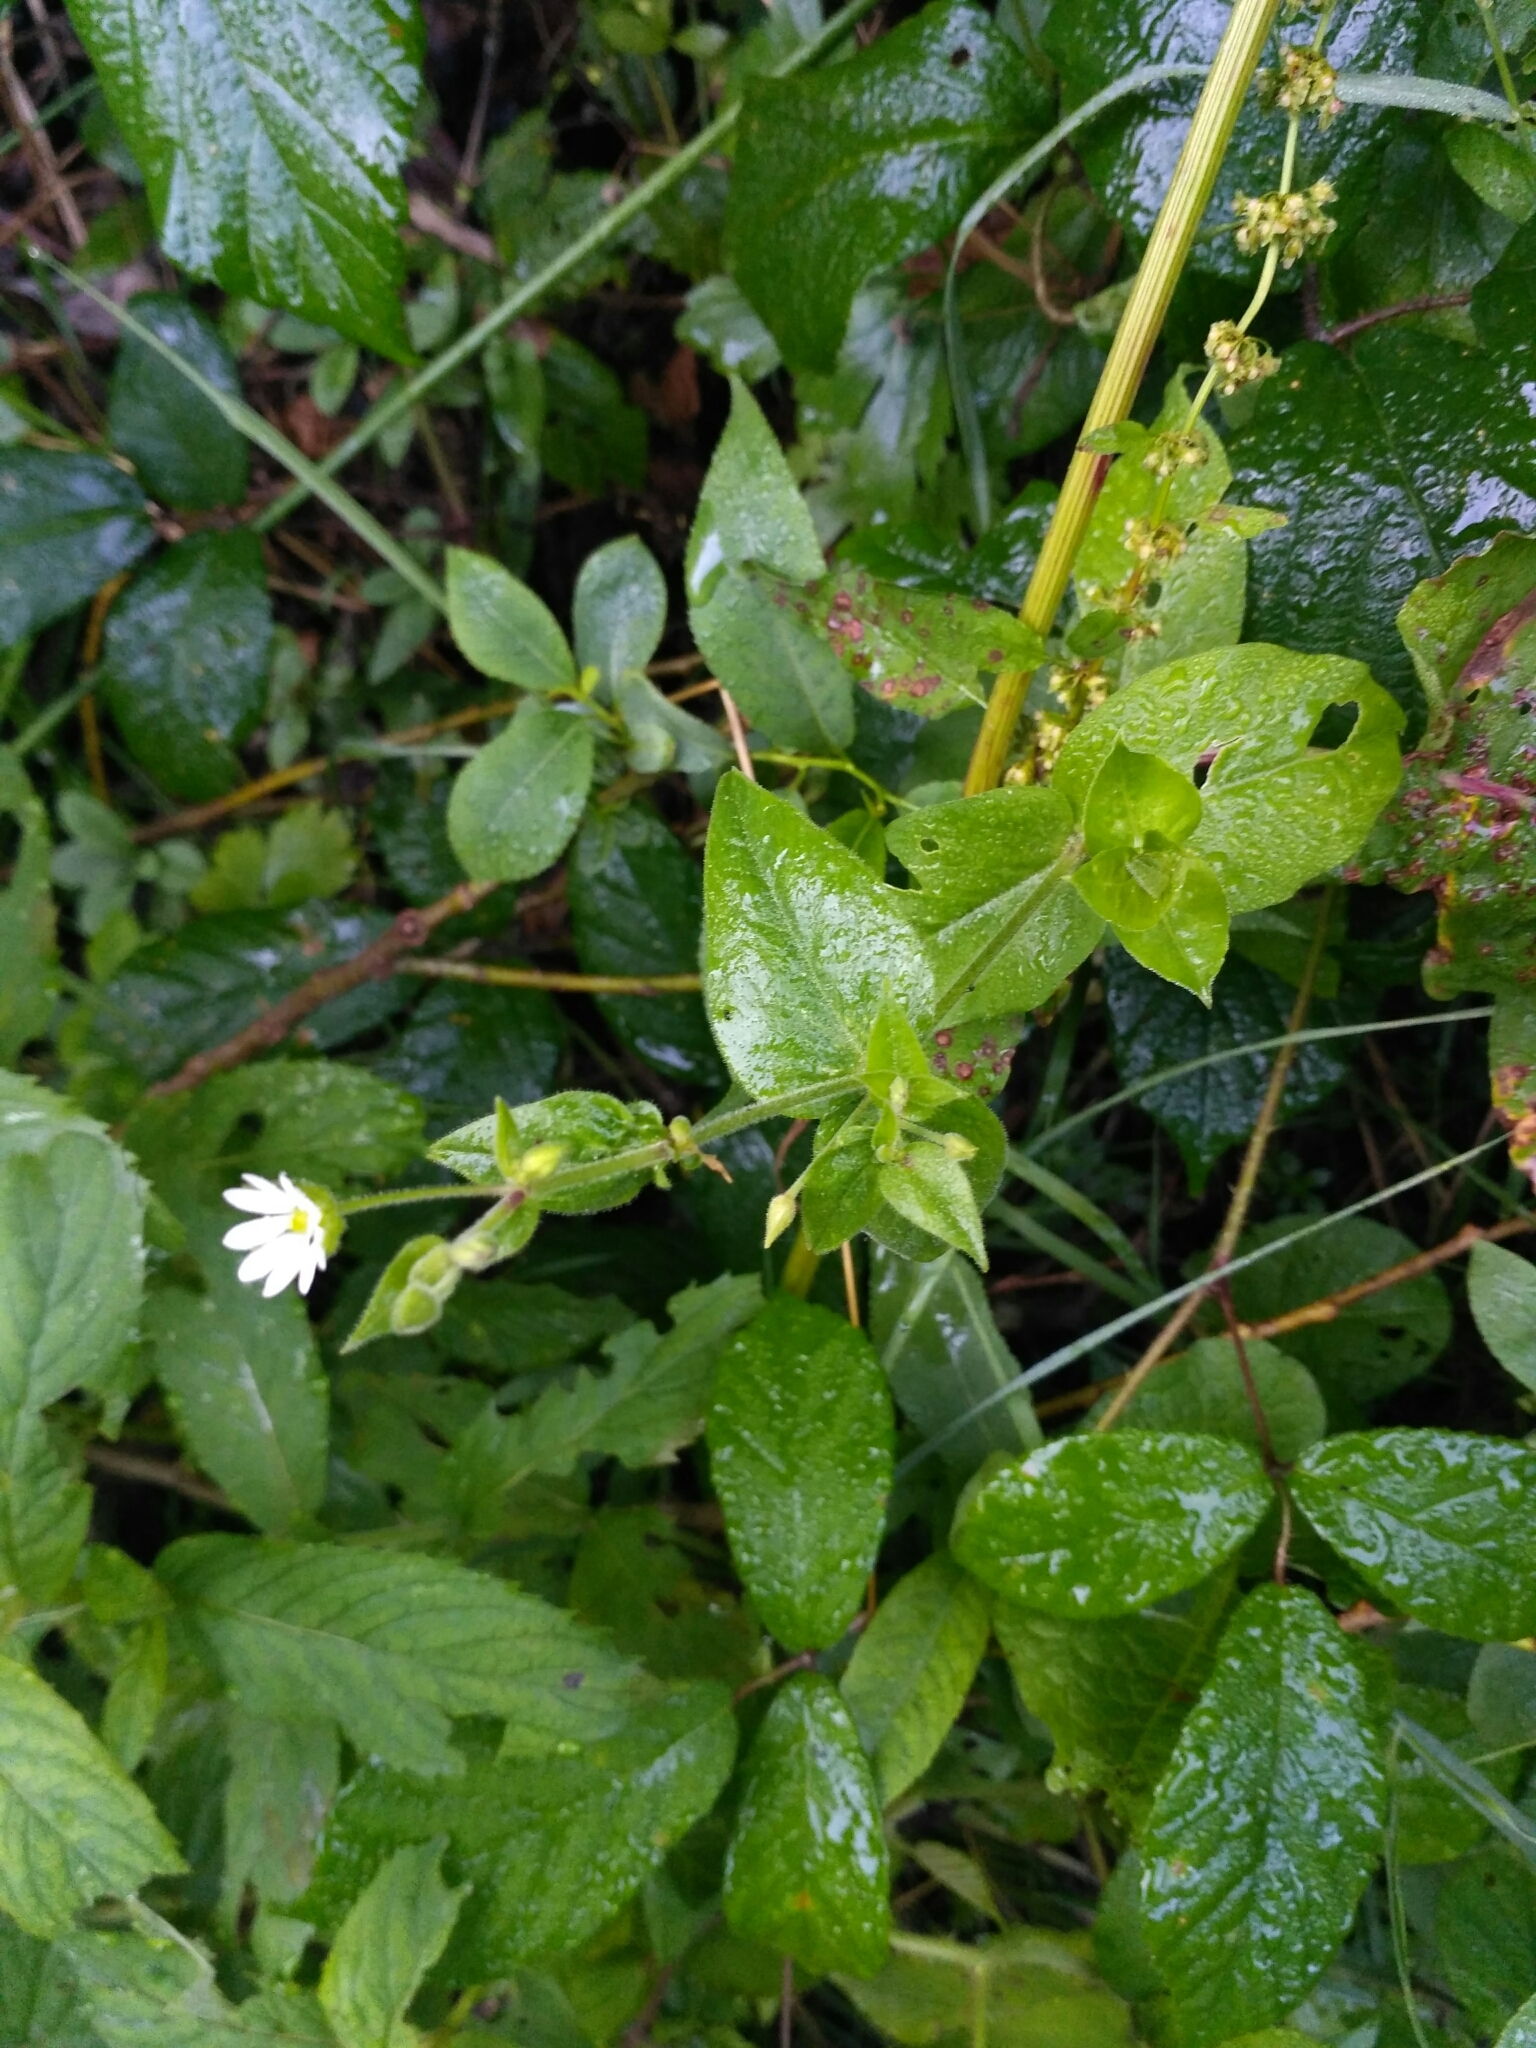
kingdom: Plantae
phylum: Tracheophyta
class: Magnoliopsida
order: Caryophyllales
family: Caryophyllaceae
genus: Stellaria
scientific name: Stellaria aquatica
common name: Water chickweed
